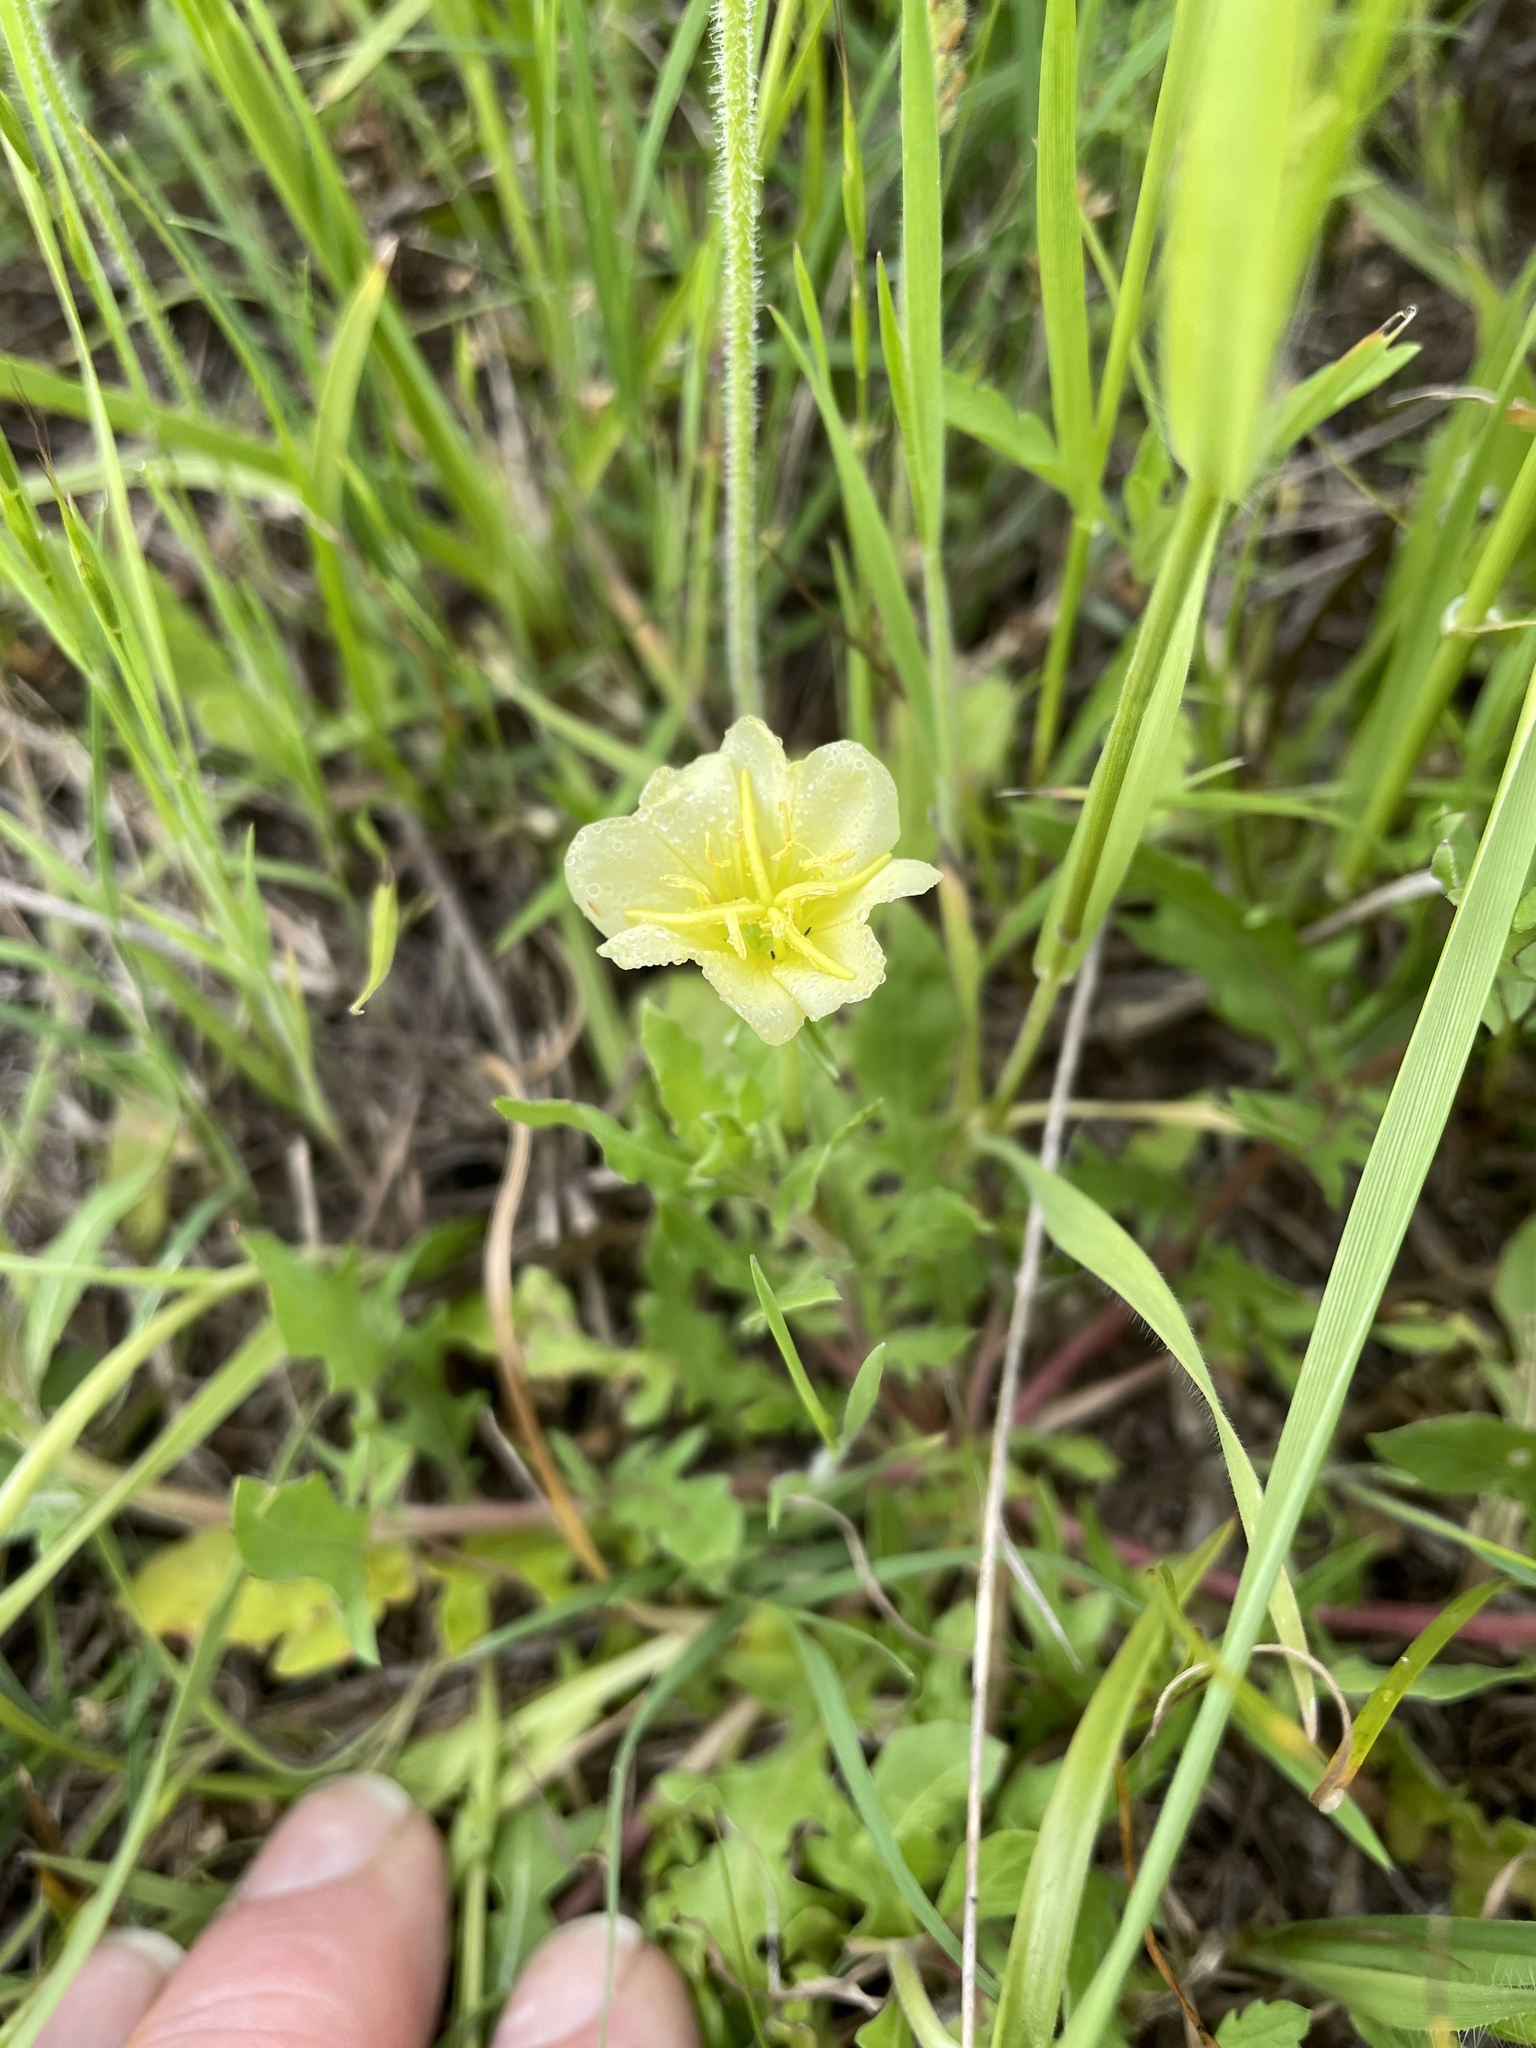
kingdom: Plantae
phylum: Tracheophyta
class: Magnoliopsida
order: Myrtales
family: Onagraceae
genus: Oenothera
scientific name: Oenothera laciniata
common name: Cut-leaved evening-primrose
